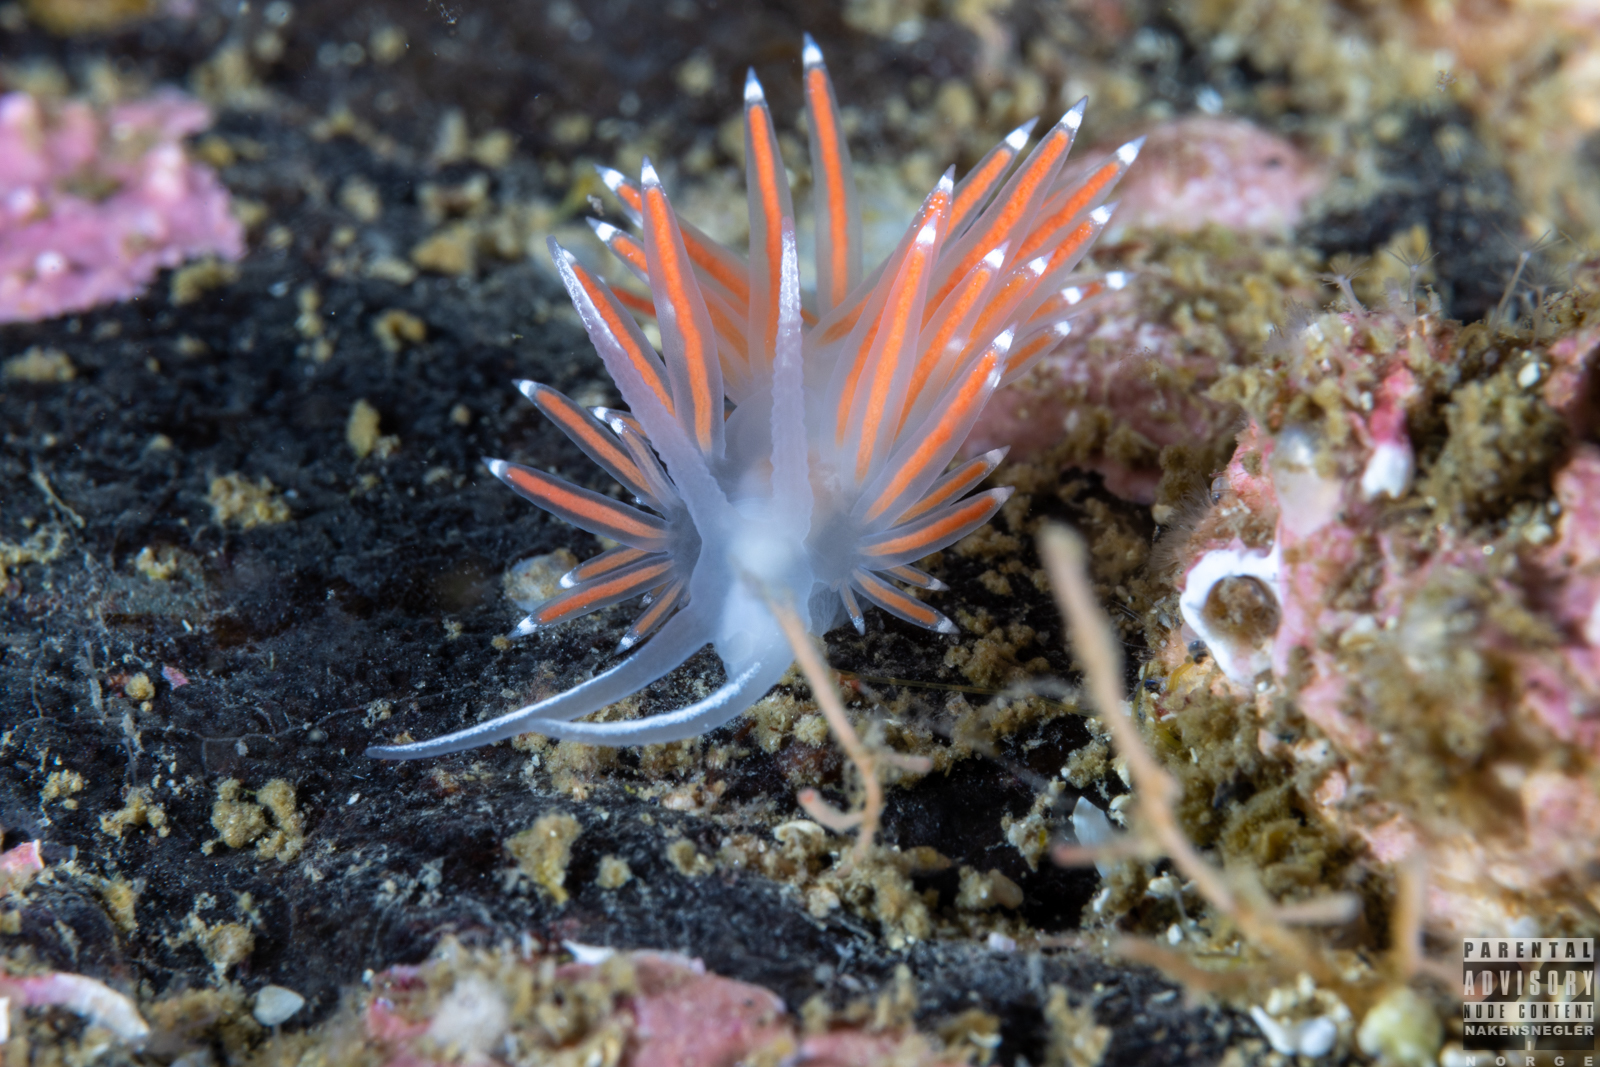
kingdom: Animalia
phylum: Mollusca
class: Gastropoda
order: Nudibranchia
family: Coryphellidae
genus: Coryphella
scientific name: Coryphella browni
